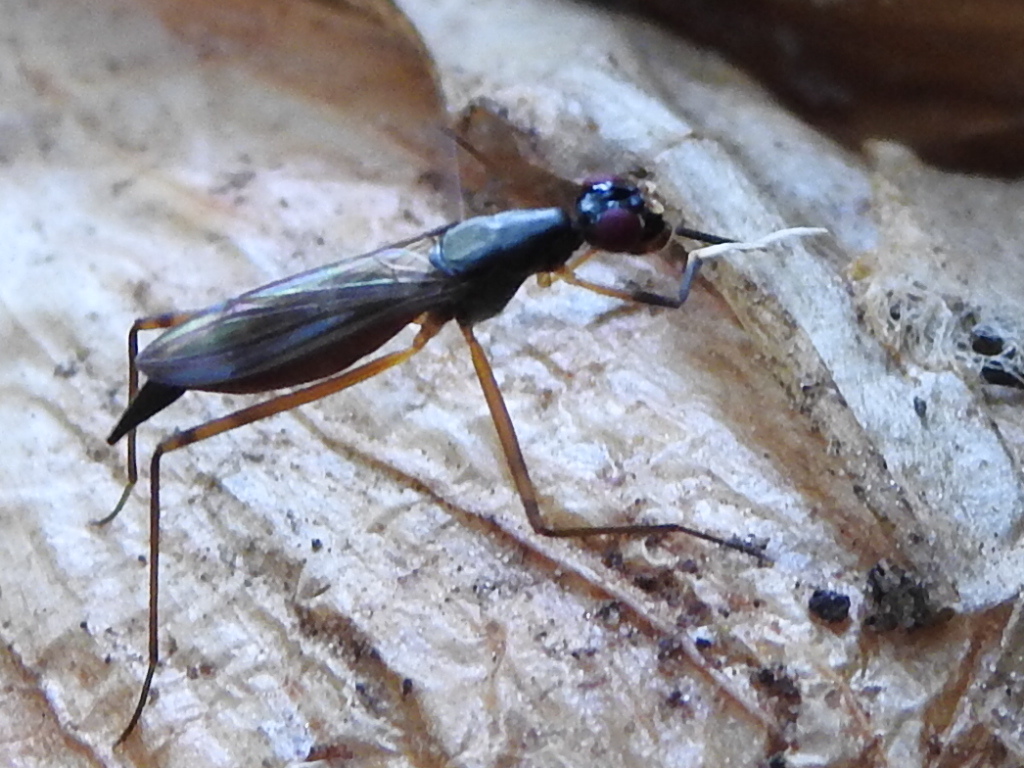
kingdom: Animalia
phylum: Arthropoda
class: Insecta
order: Diptera
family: Micropezidae
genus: Rainieria
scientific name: Rainieria antennaepes
